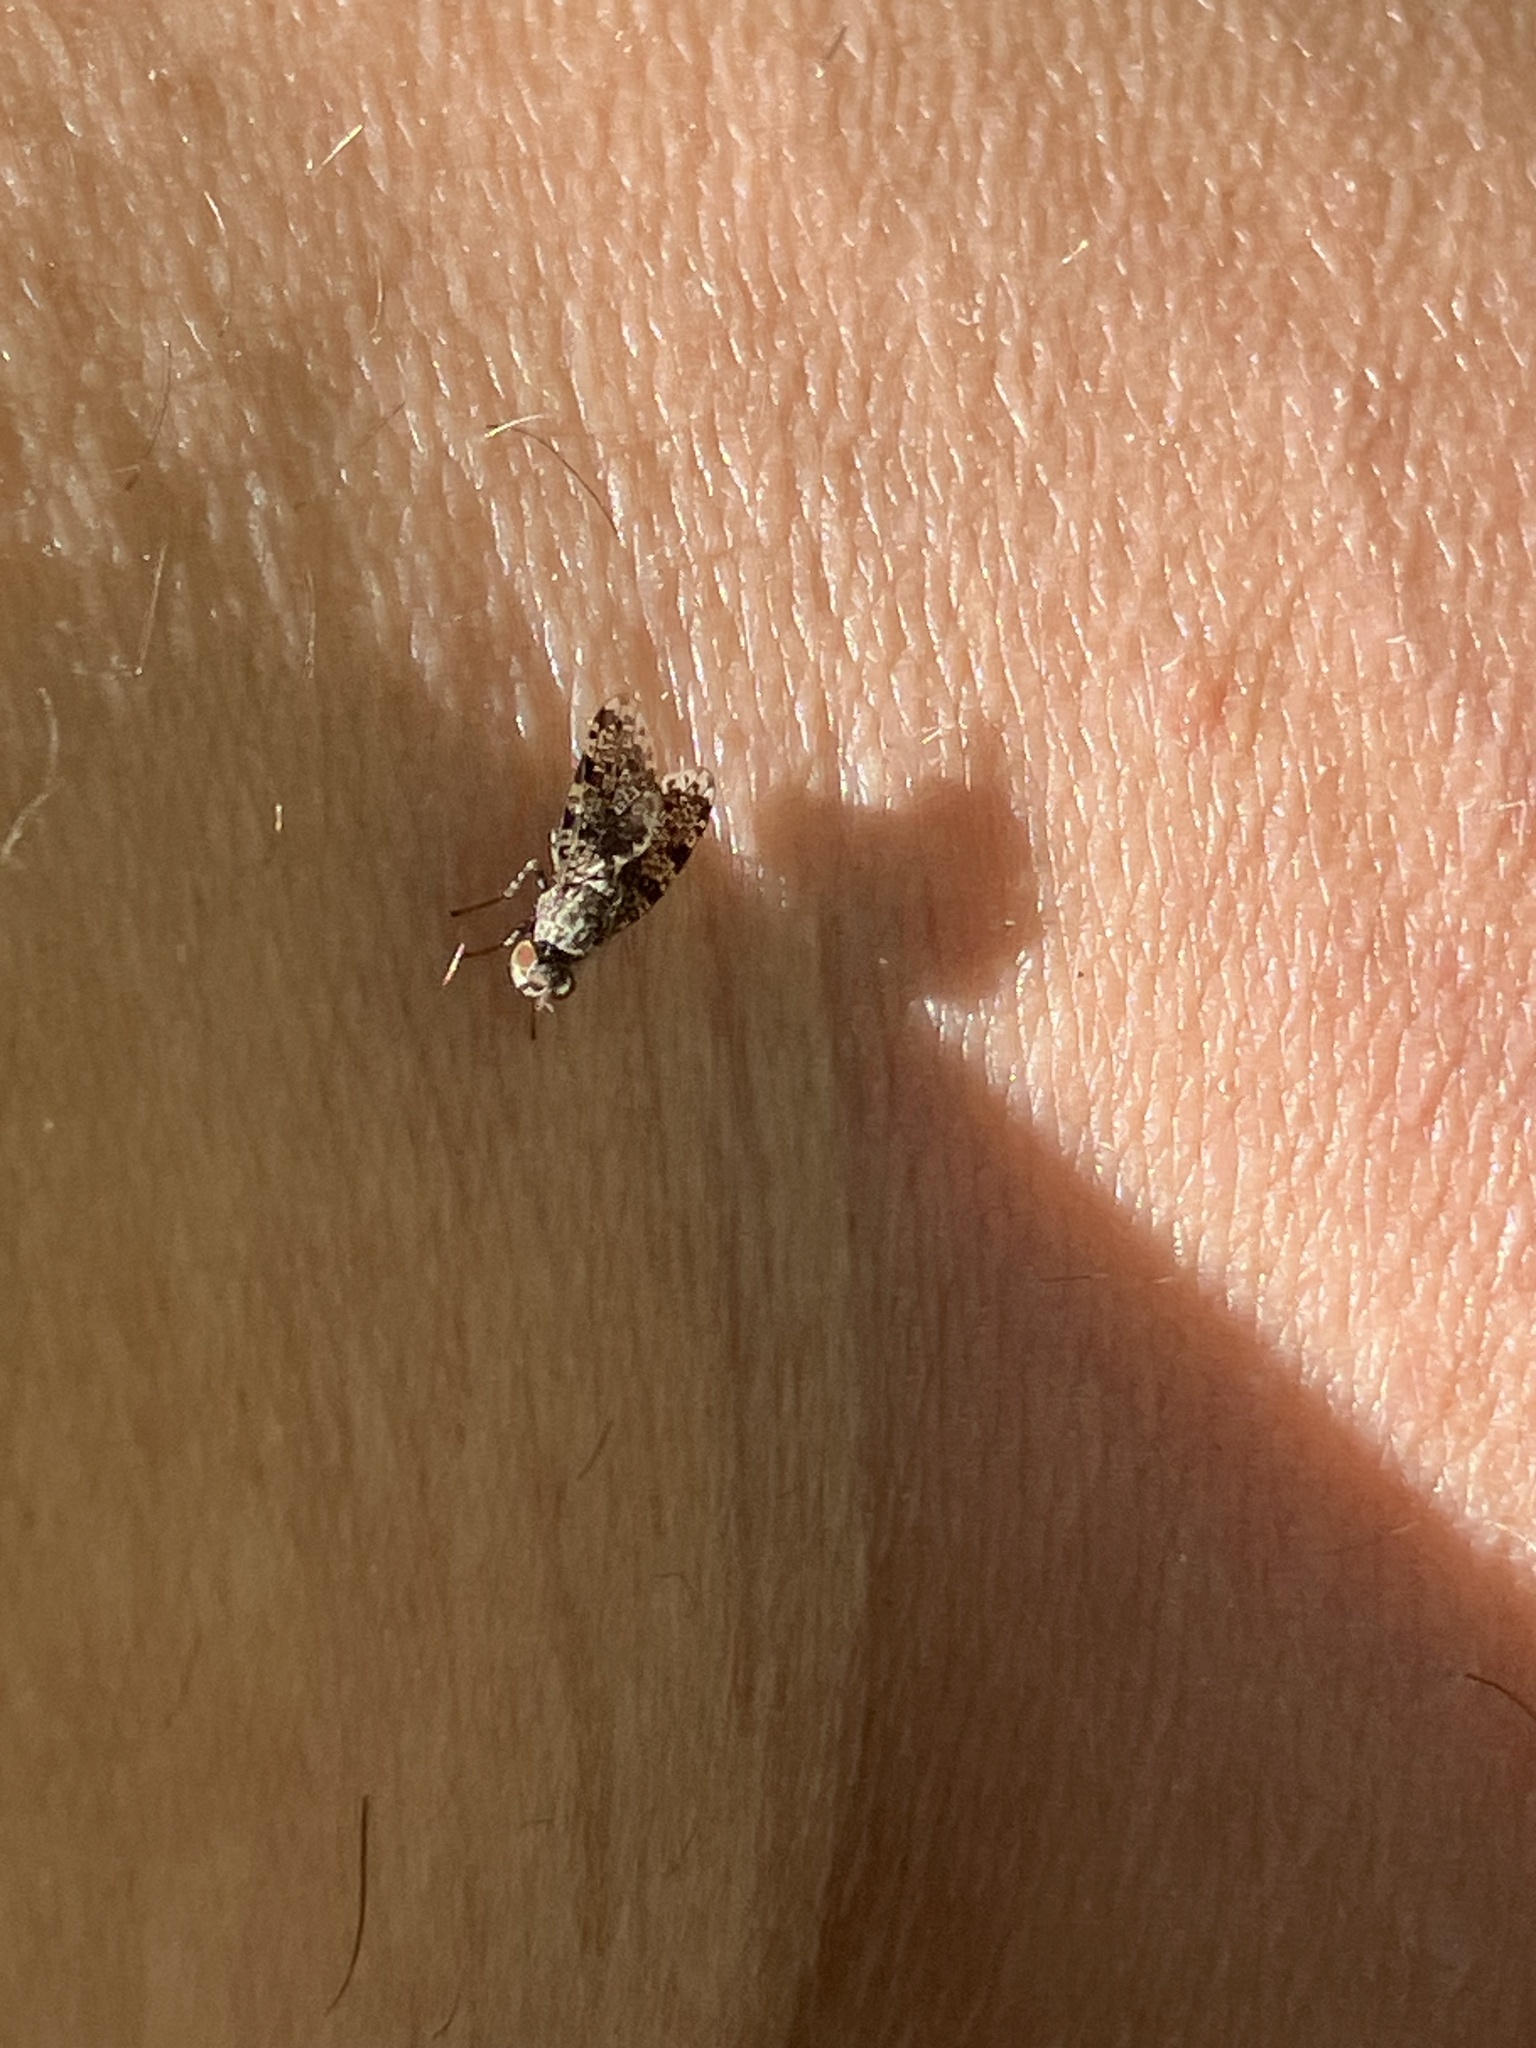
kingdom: Animalia
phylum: Arthropoda
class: Insecta
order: Diptera
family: Ulidiidae
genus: Callopistromyia
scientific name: Callopistromyia annulipes
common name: Peacock fly
